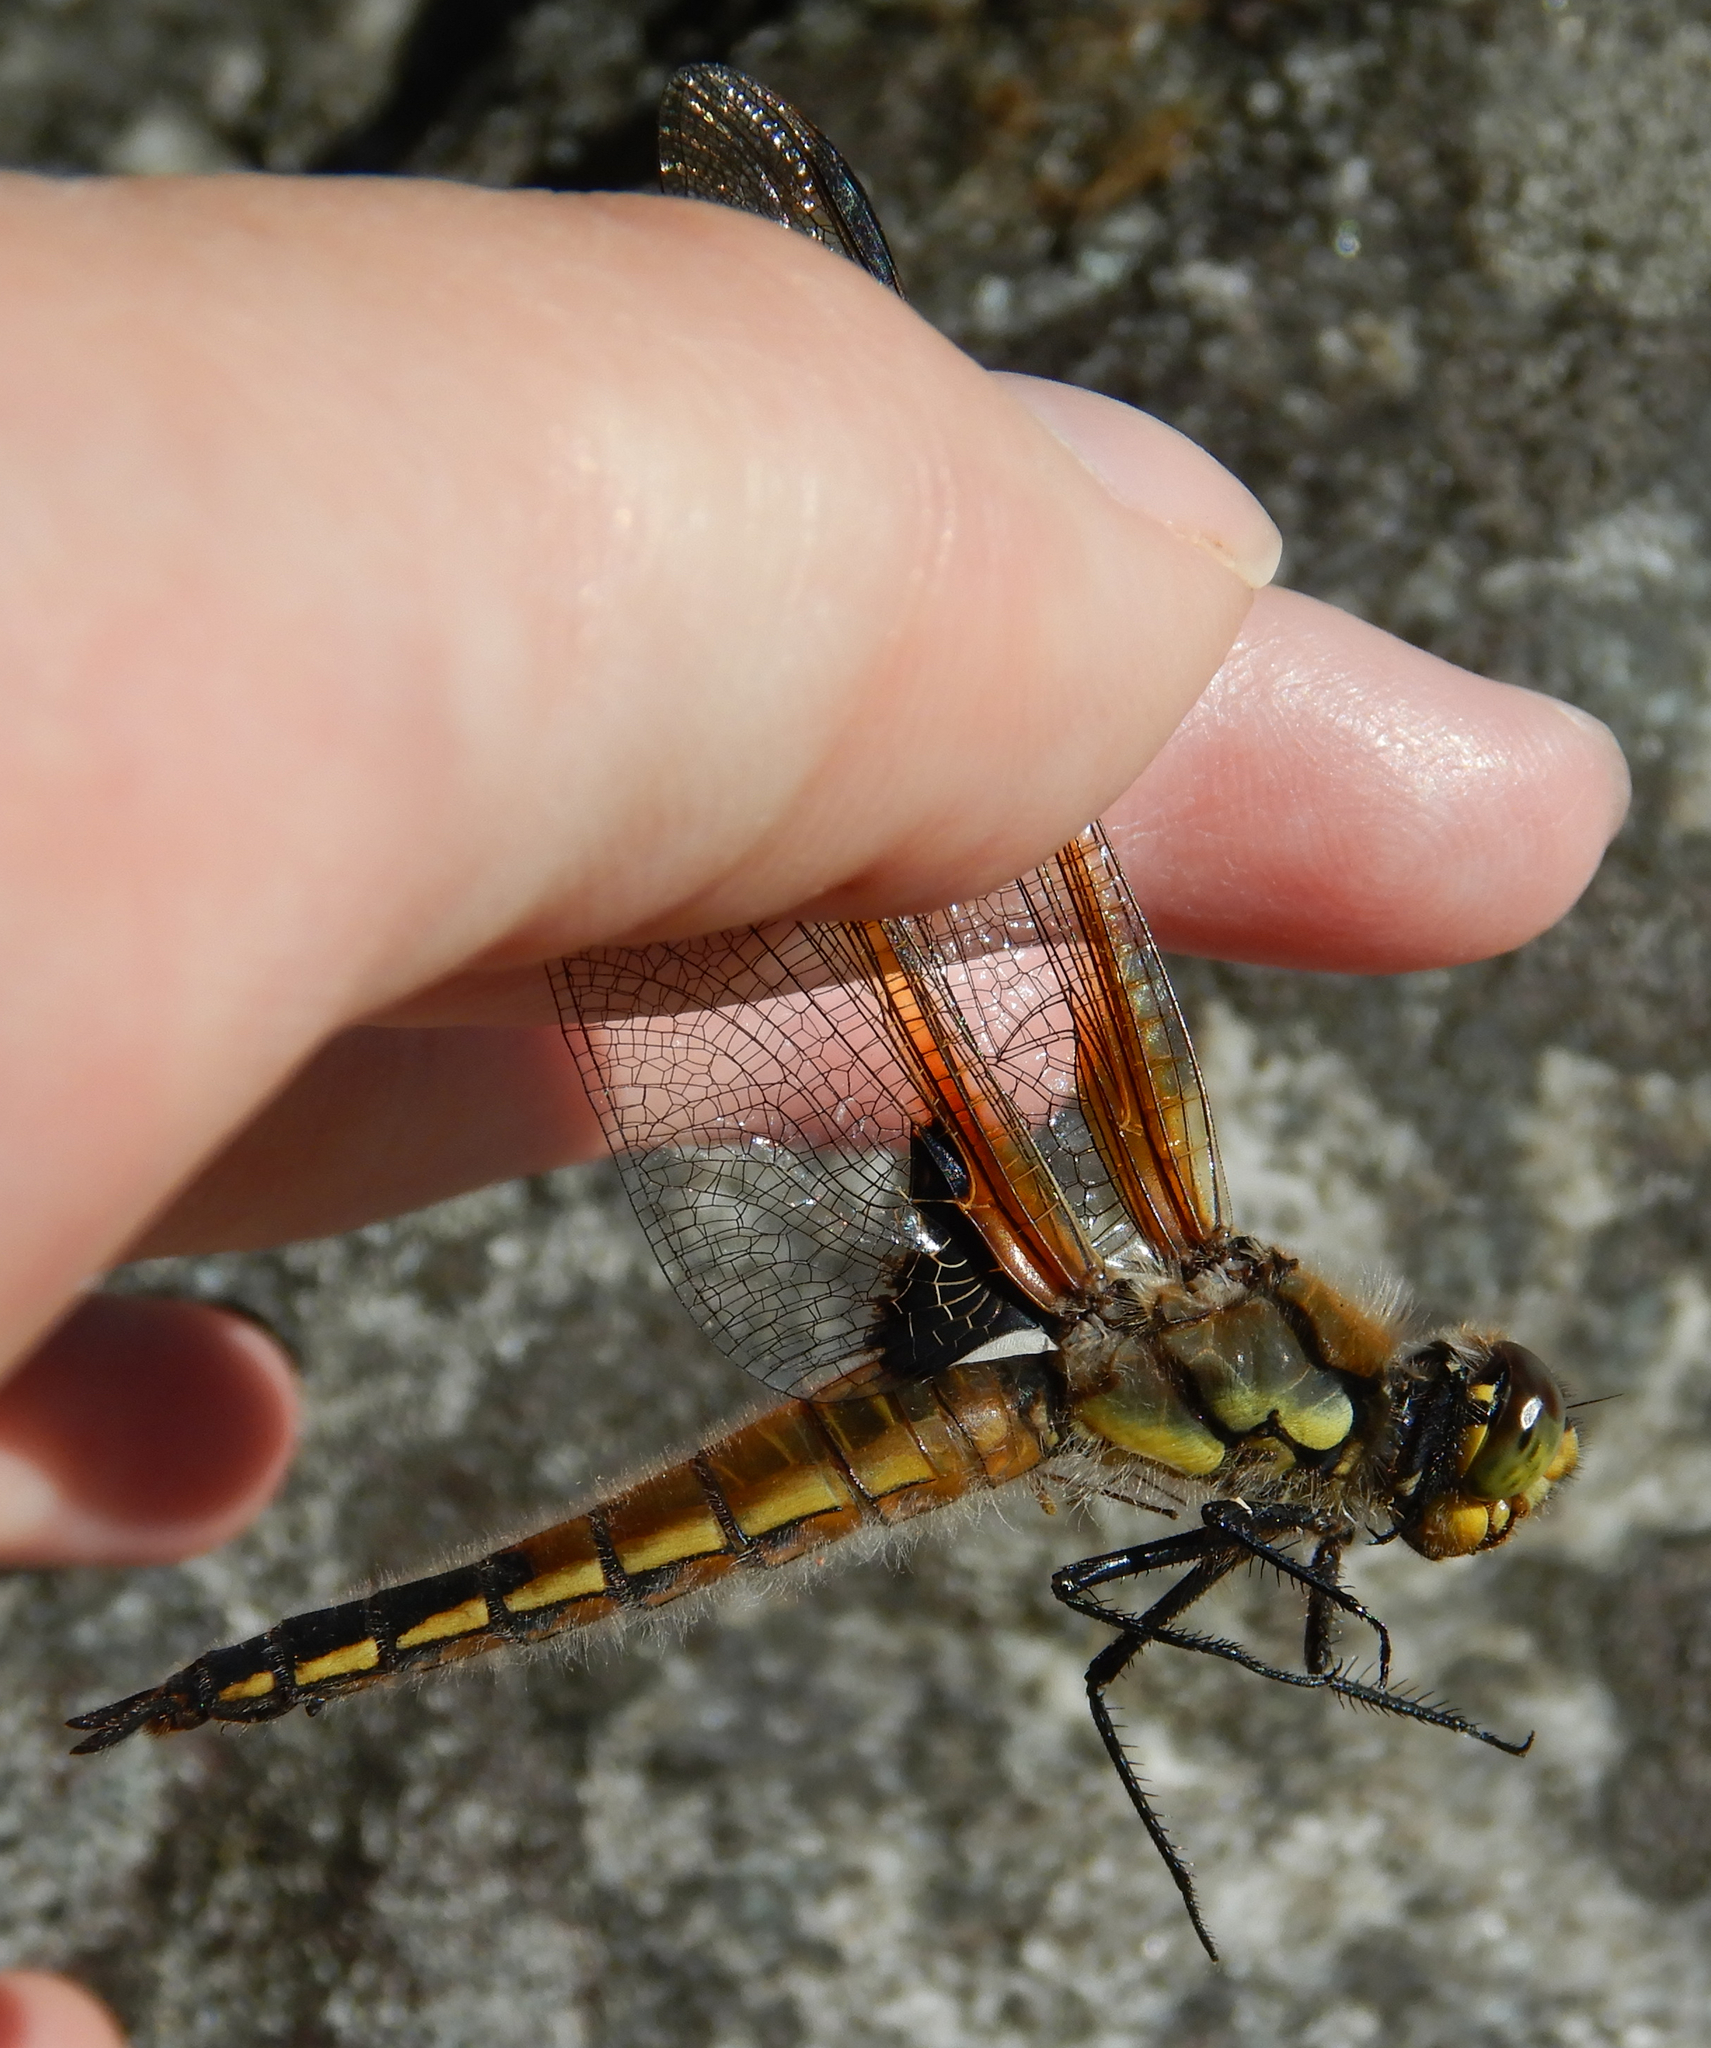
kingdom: Animalia
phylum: Arthropoda
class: Insecta
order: Odonata
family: Libellulidae
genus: Libellula
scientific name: Libellula quadrimaculata
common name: Four-spotted chaser
